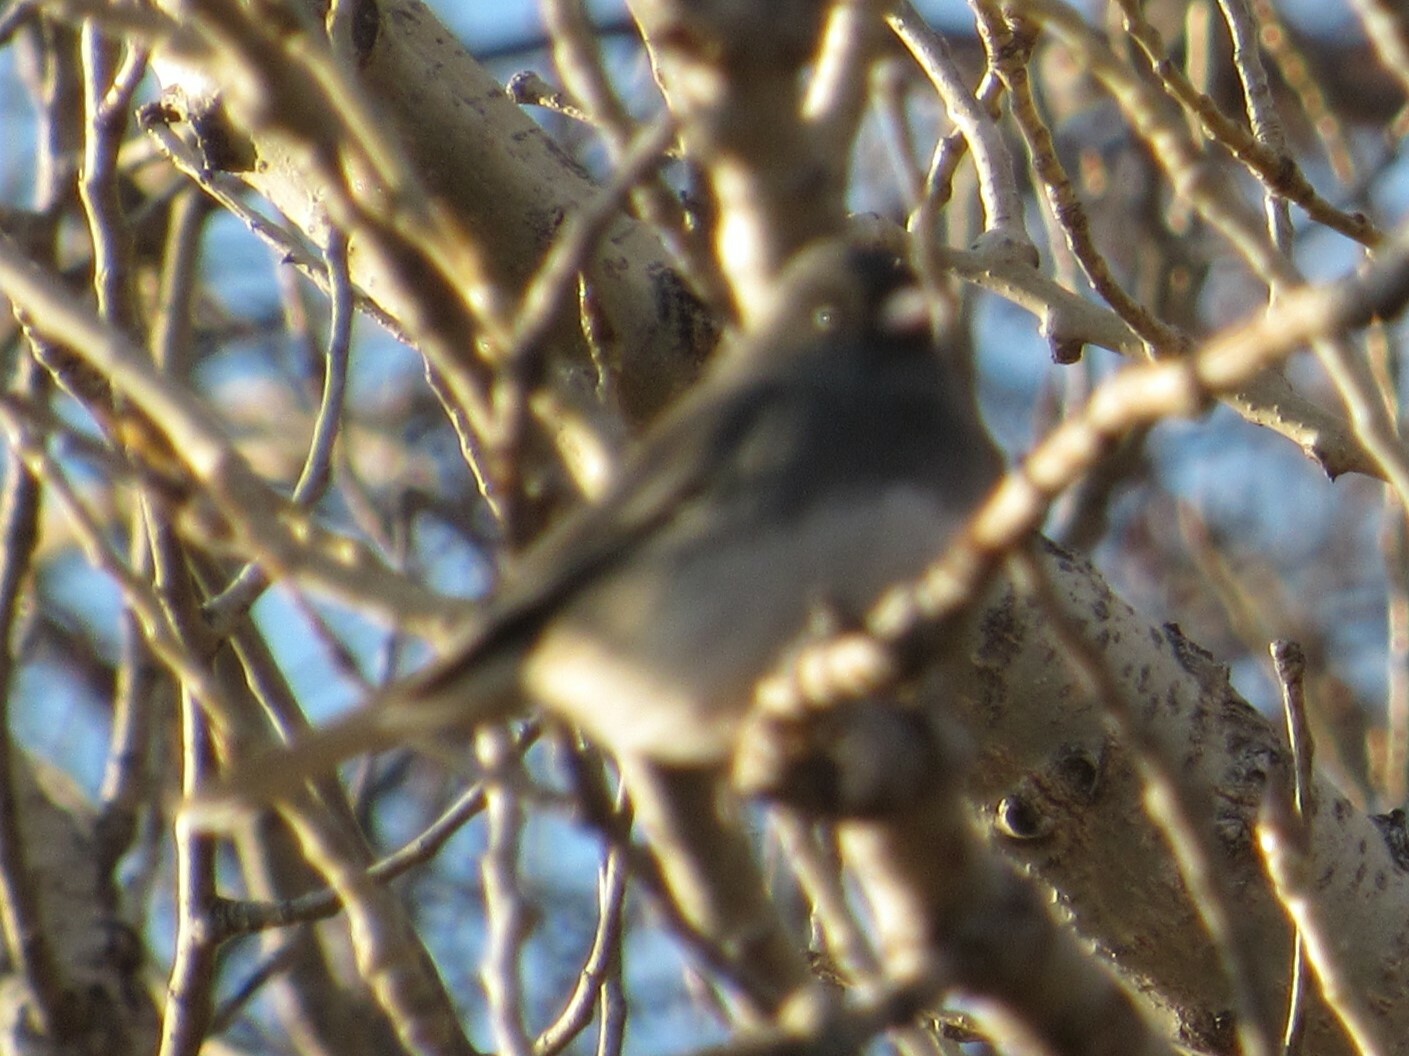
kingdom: Animalia
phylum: Chordata
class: Aves
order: Passeriformes
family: Passerellidae
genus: Junco
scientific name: Junco hyemalis
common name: Dark-eyed junco
